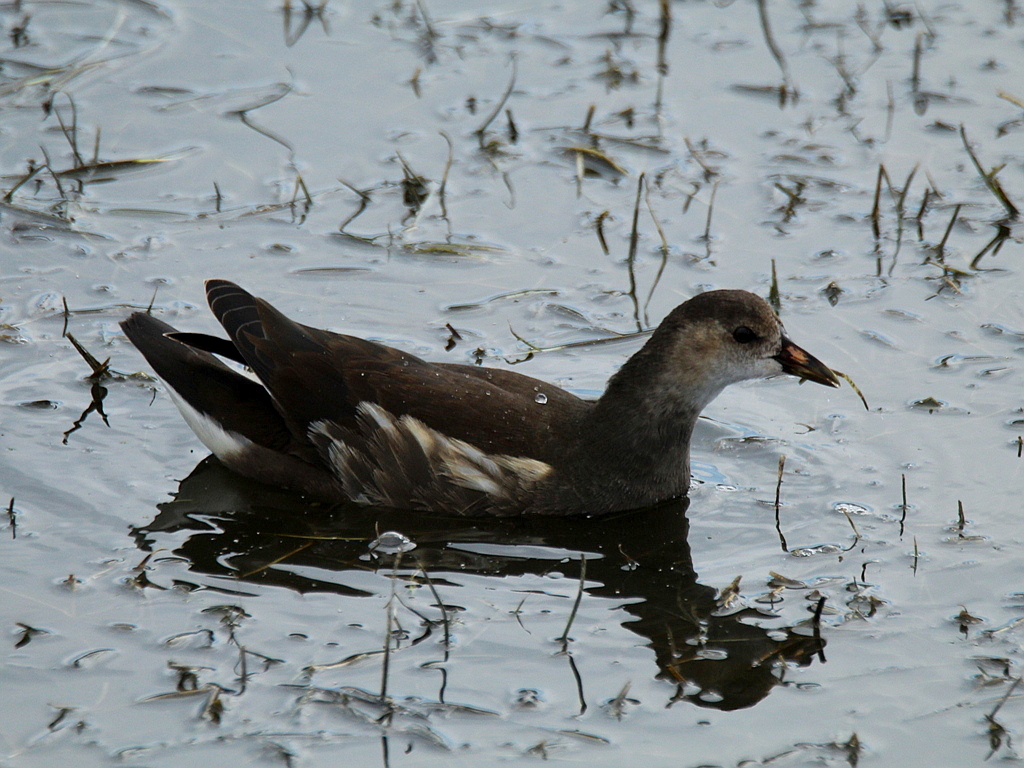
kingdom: Animalia
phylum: Chordata
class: Aves
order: Gruiformes
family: Rallidae
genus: Gallinula
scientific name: Gallinula chloropus
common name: Common moorhen
